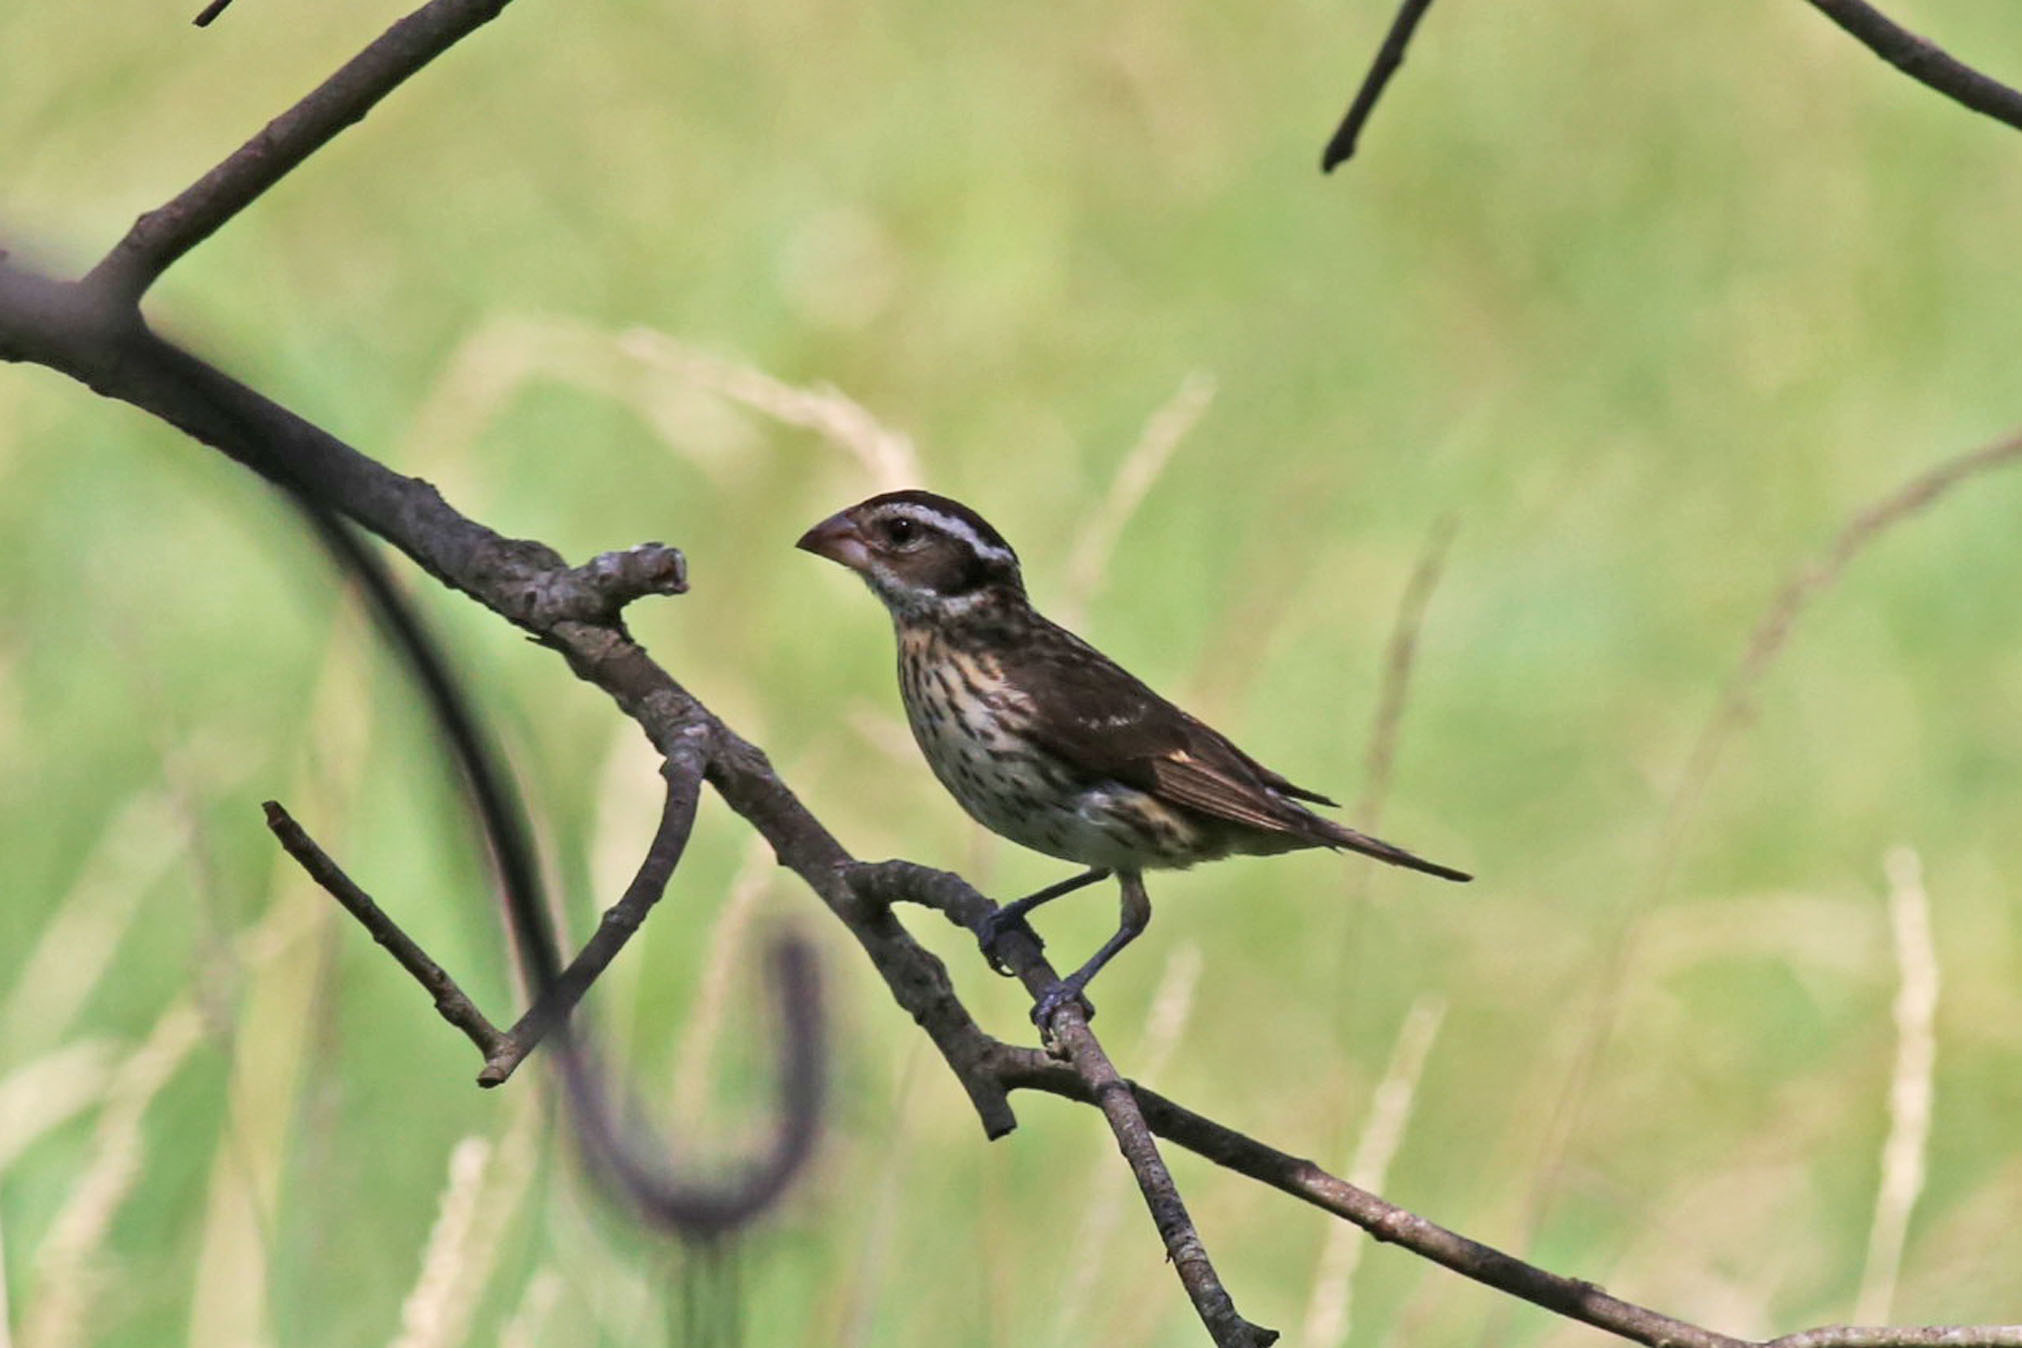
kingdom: Animalia
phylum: Chordata
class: Aves
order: Passeriformes
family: Cardinalidae
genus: Pheucticus
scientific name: Pheucticus ludovicianus
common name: Rose-breasted grosbeak
